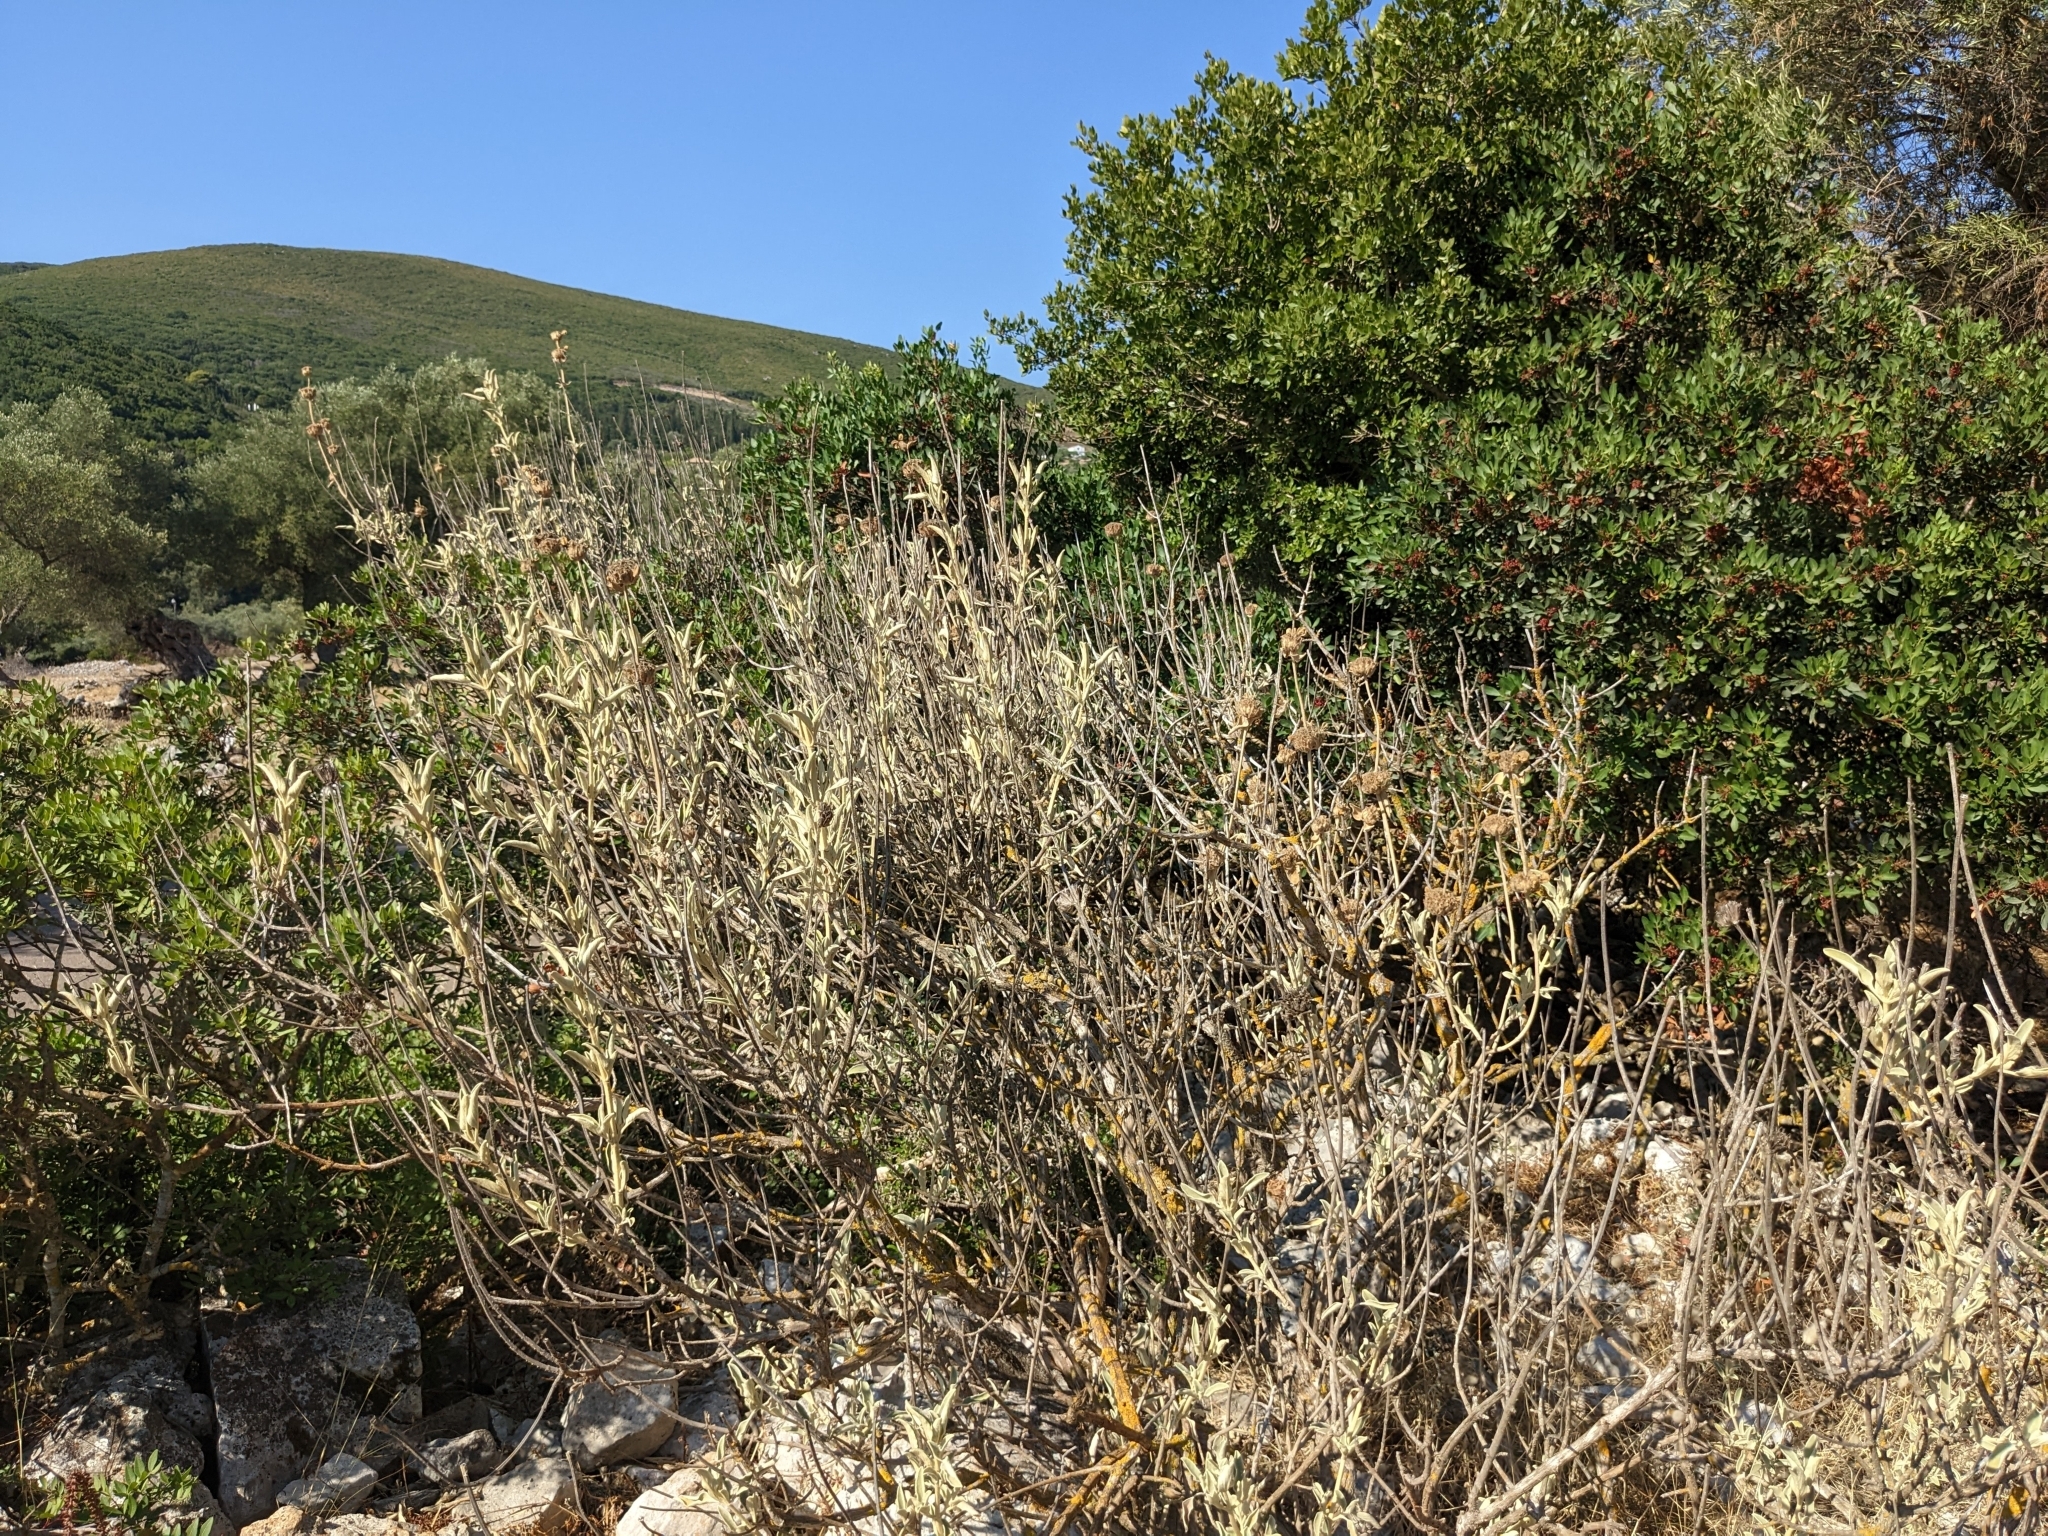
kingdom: Plantae
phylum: Tracheophyta
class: Magnoliopsida
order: Lamiales
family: Lamiaceae
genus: Phlomis
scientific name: Phlomis fruticosa
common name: Jerusalem sage
